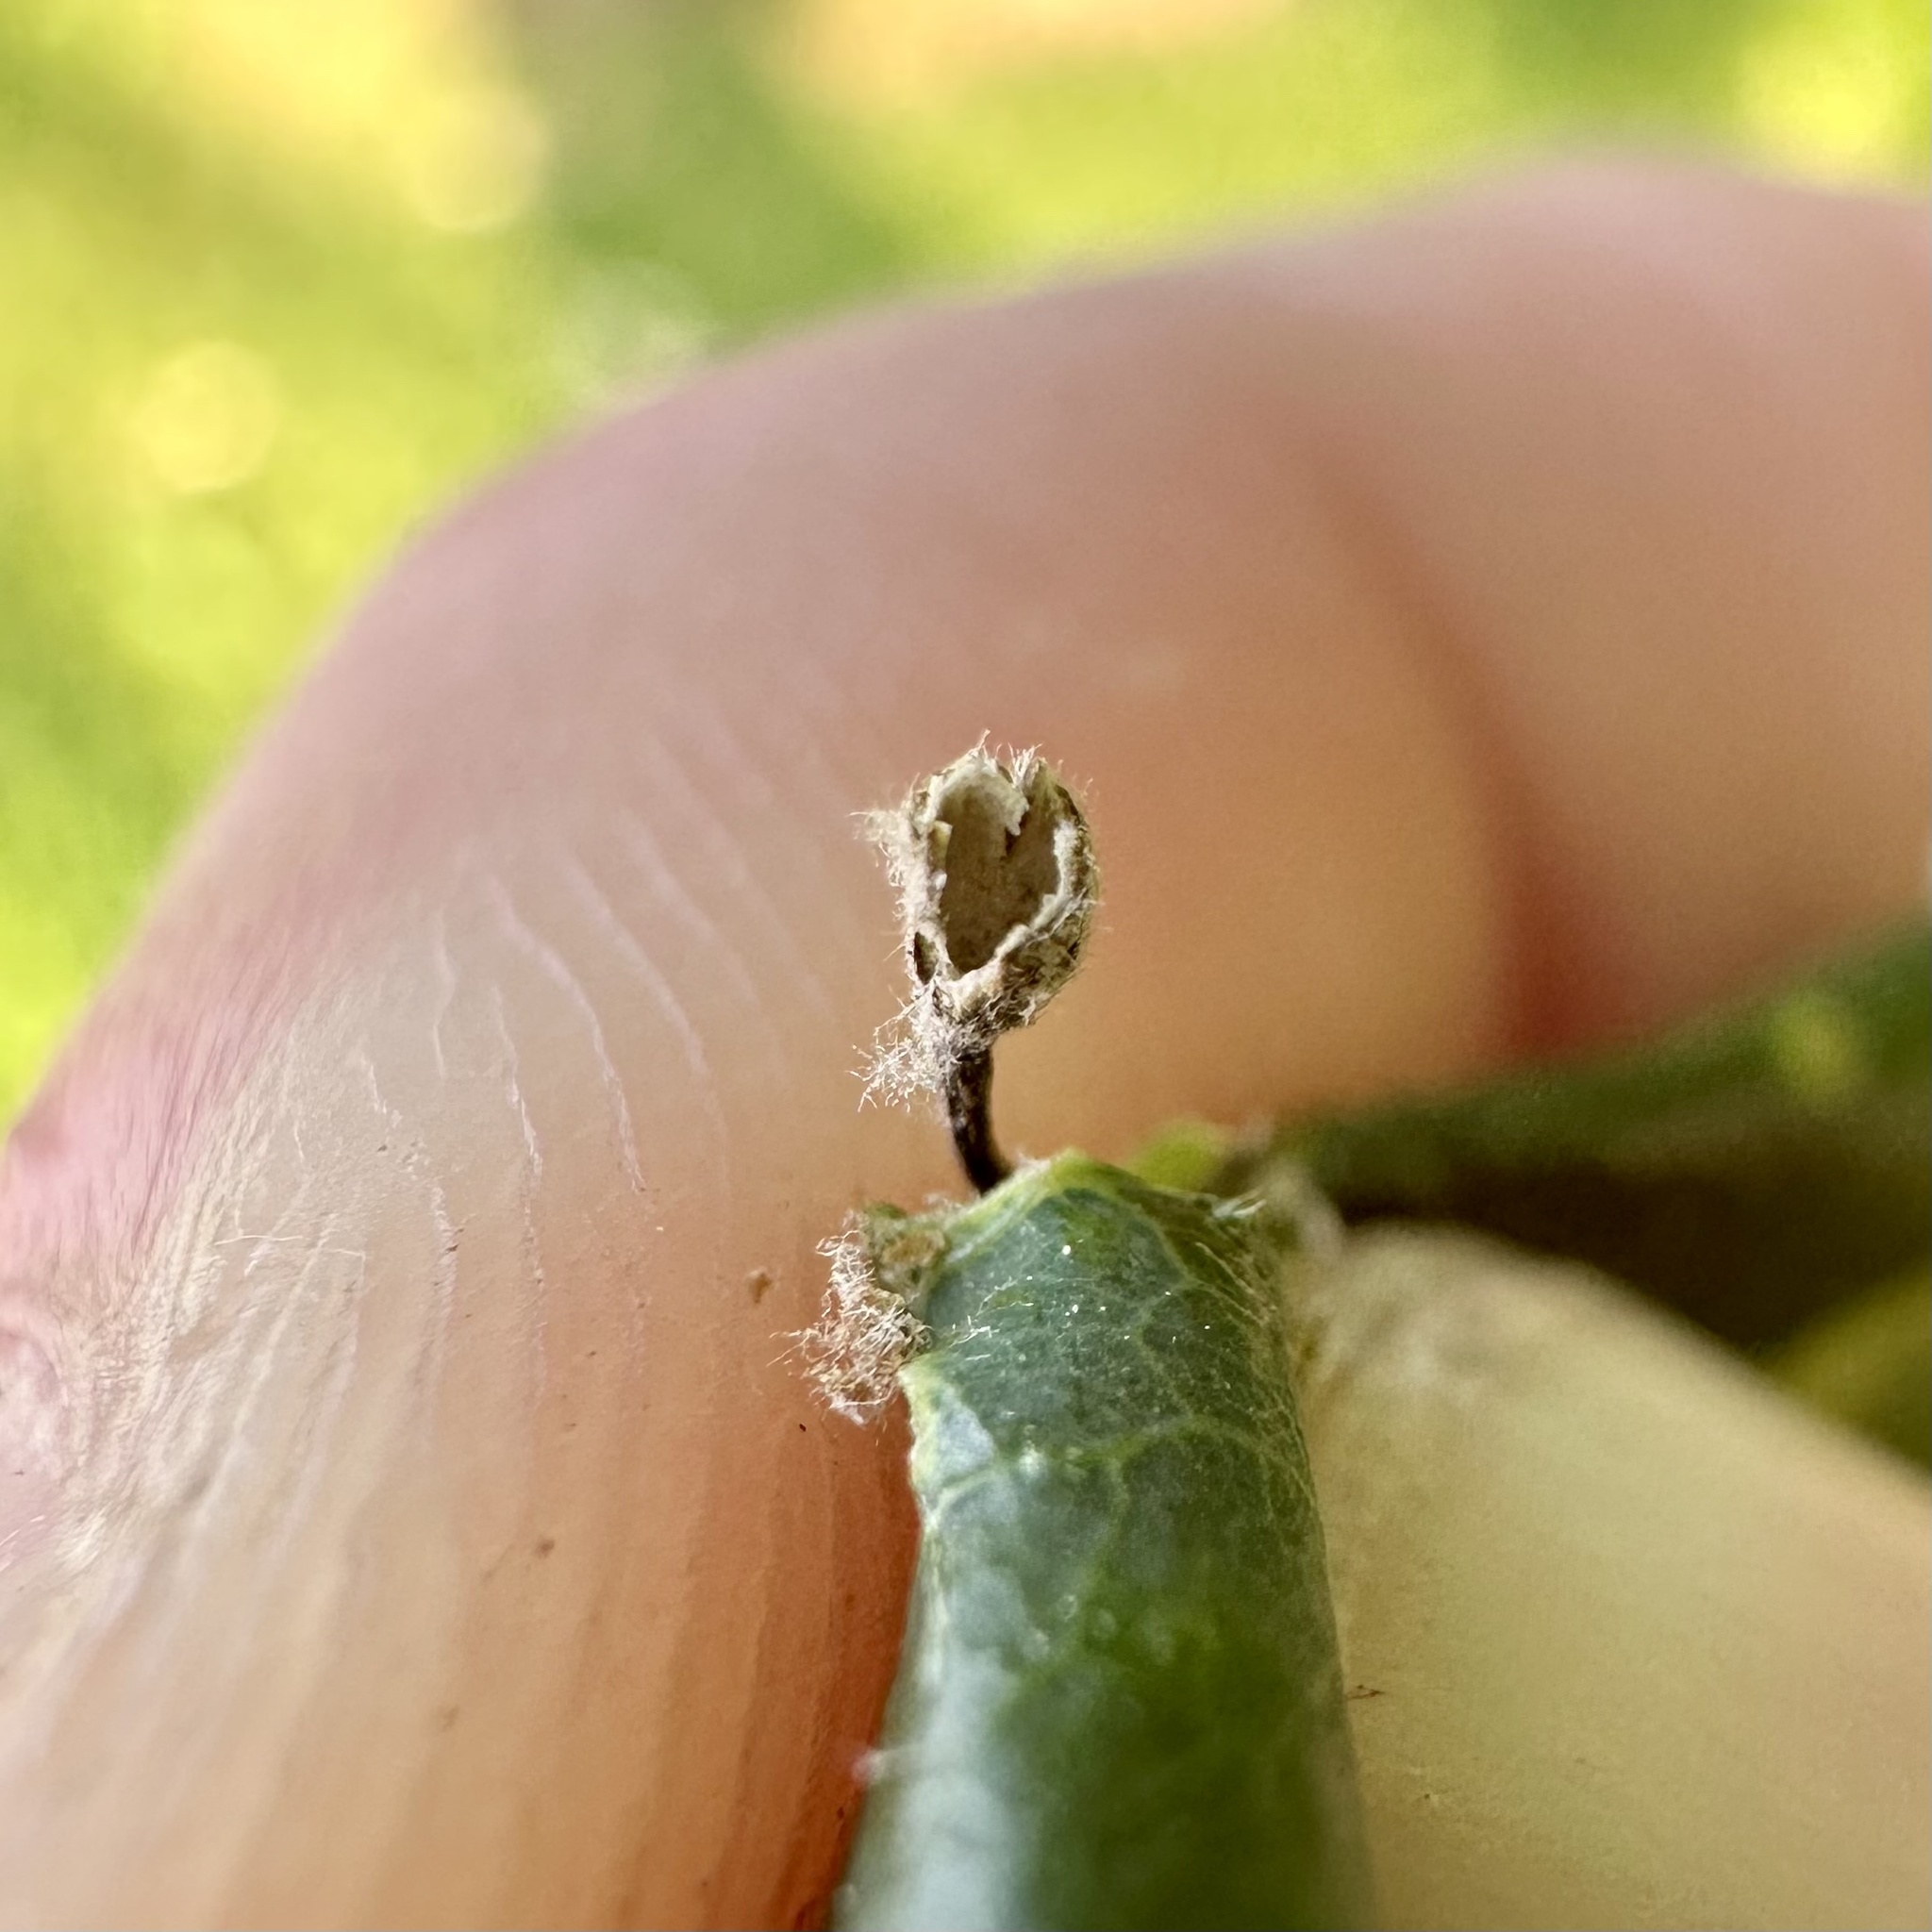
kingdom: Animalia
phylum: Arthropoda
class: Insecta
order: Hymenoptera
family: Cynipidae
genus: Andricus
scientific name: Andricus
